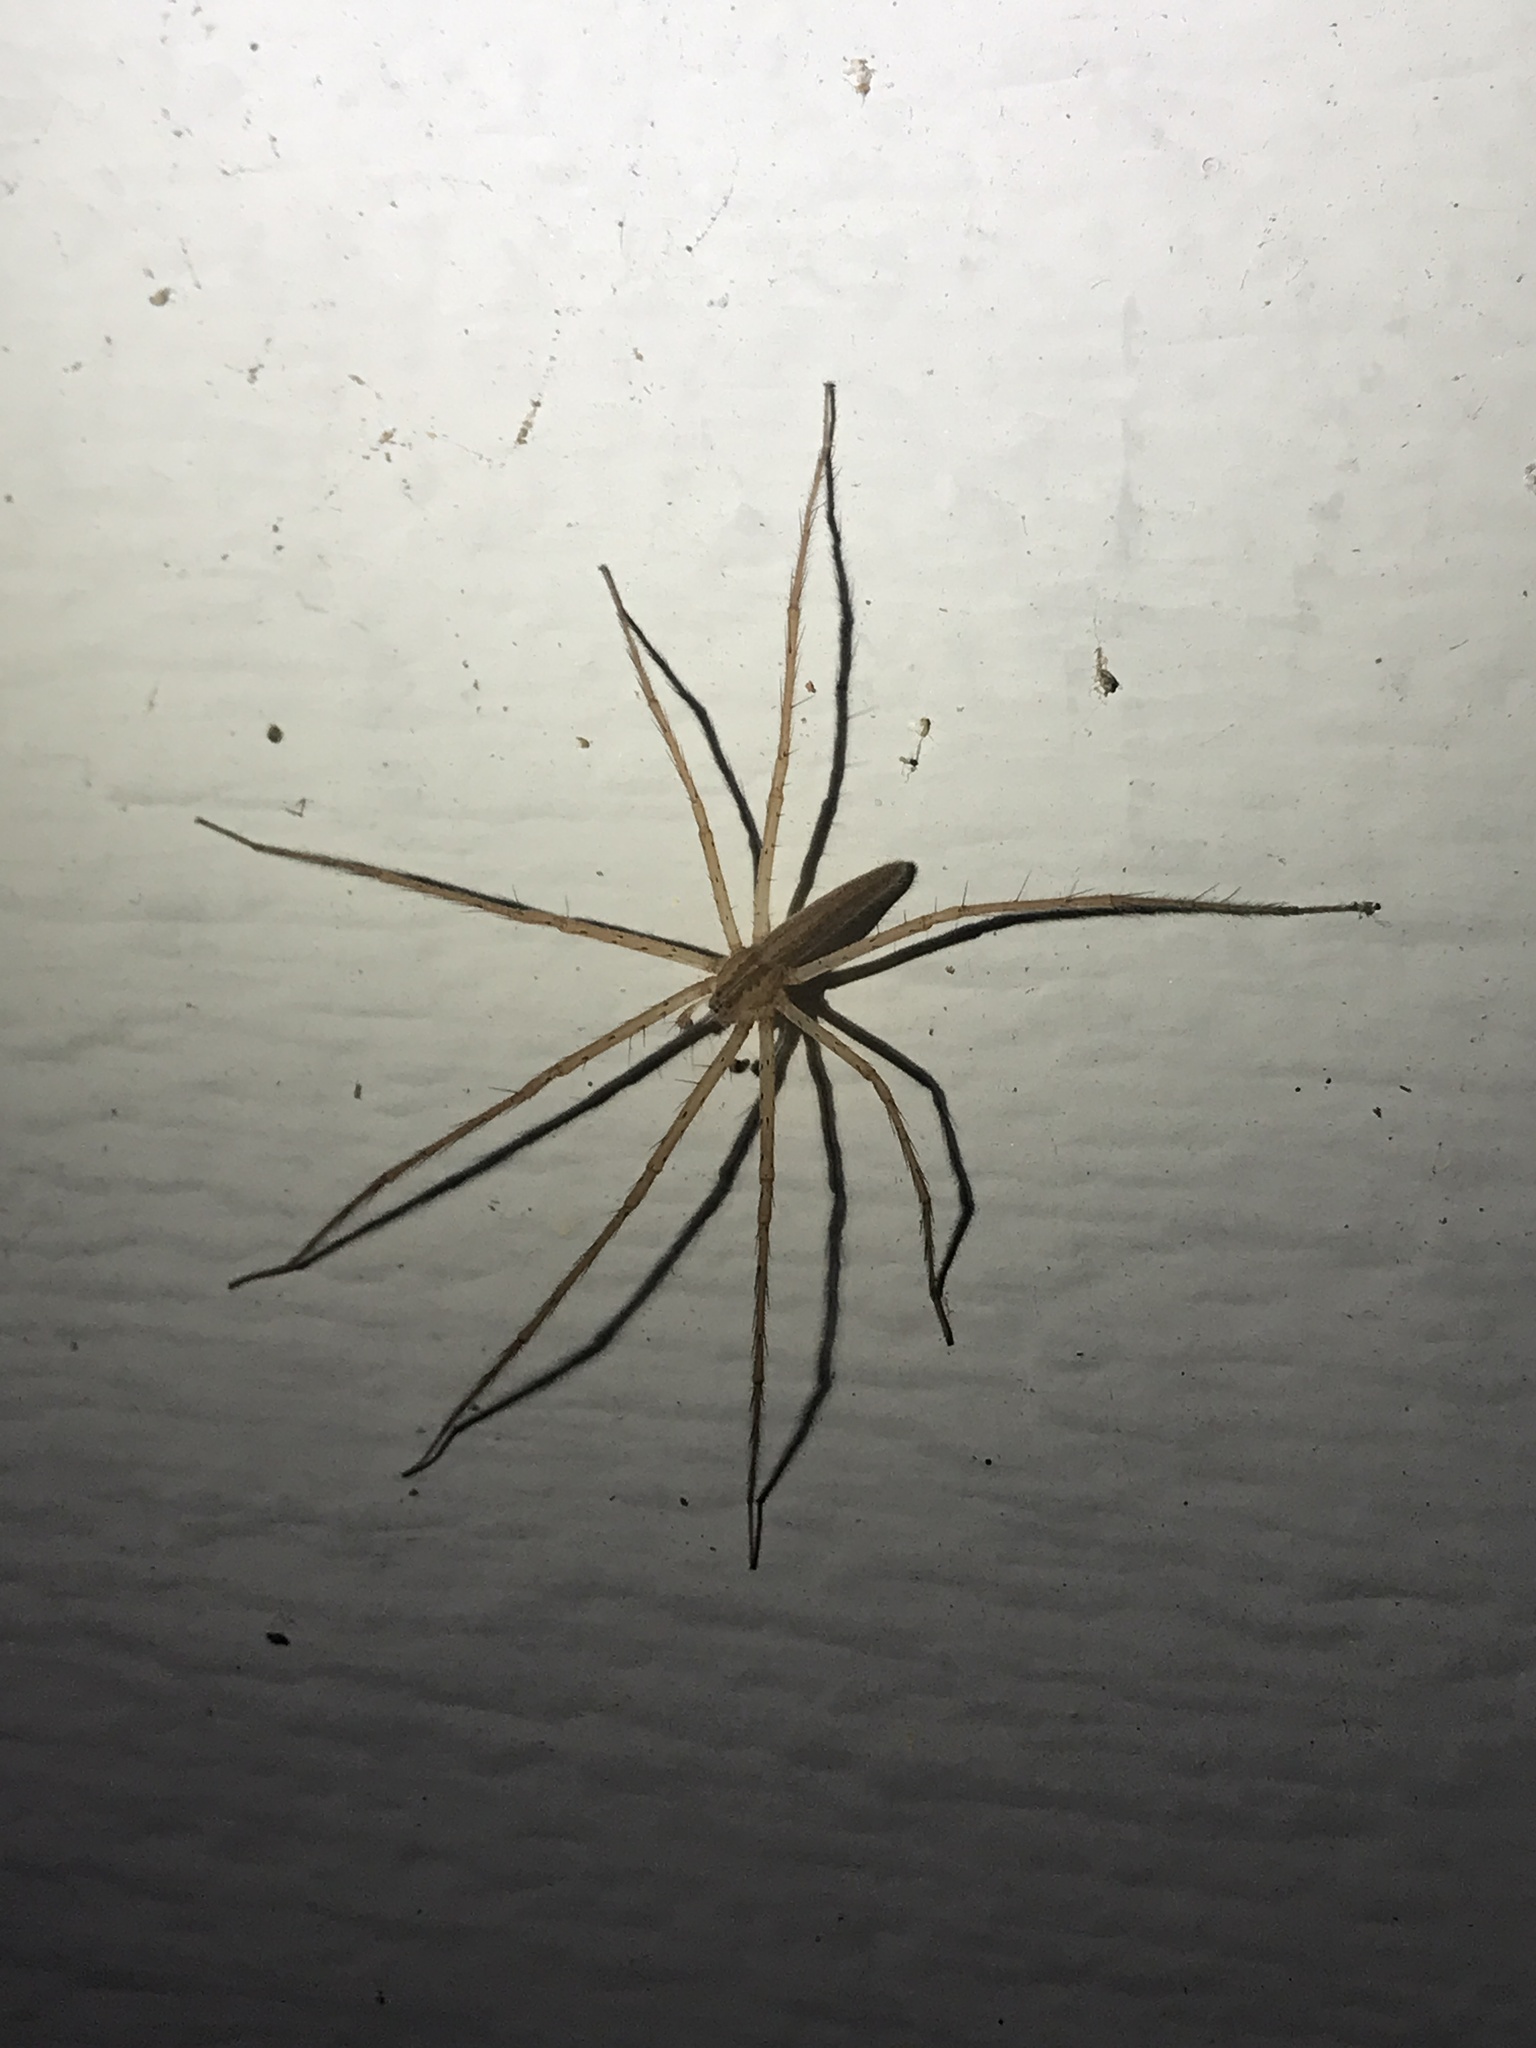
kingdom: Animalia
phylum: Arthropoda
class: Arachnida
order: Araneae
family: Pisauridae
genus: Pisaurina
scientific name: Pisaurina undulata
